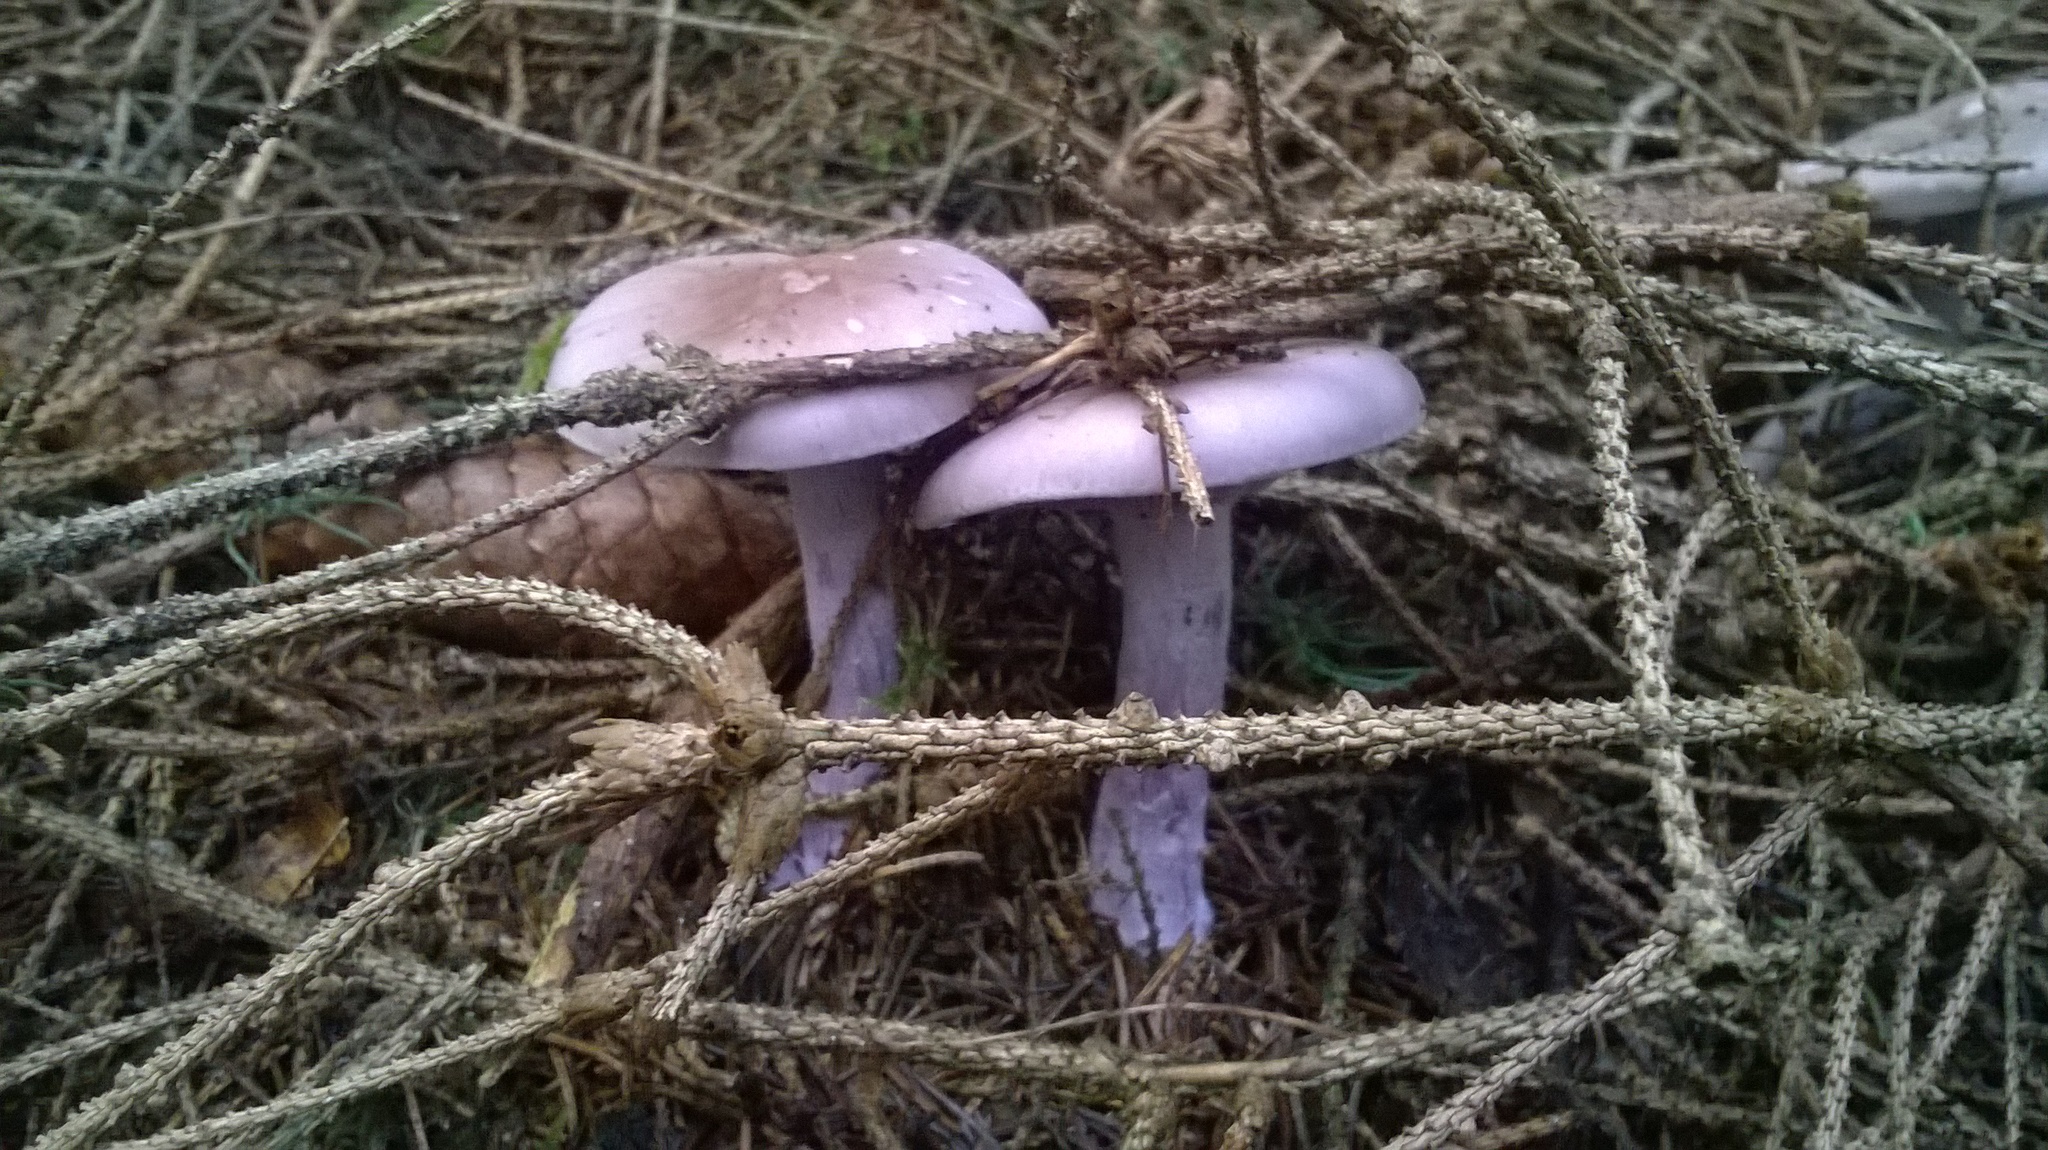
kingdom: Fungi
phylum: Basidiomycota
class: Agaricomycetes
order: Agaricales
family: Tricholomataceae
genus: Collybia
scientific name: Collybia
